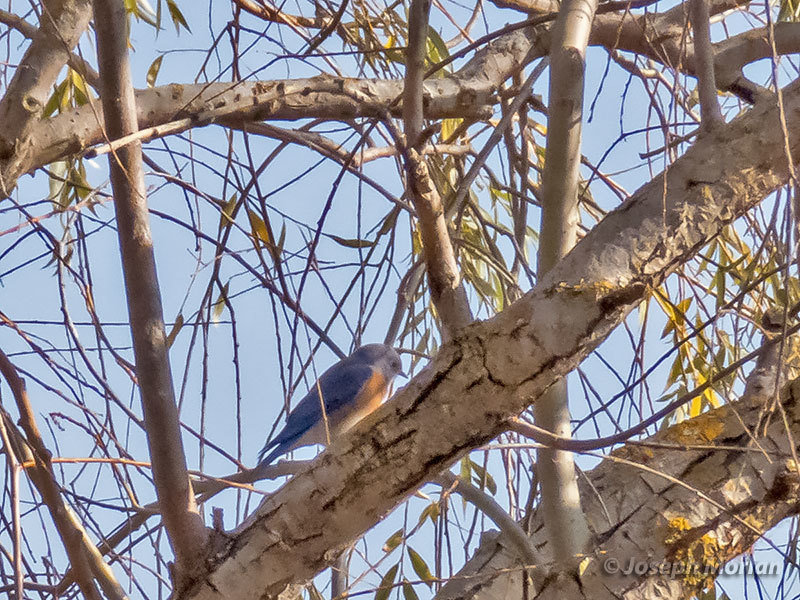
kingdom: Animalia
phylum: Chordata
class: Aves
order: Passeriformes
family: Turdidae
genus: Sialia
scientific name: Sialia mexicana
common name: Western bluebird
